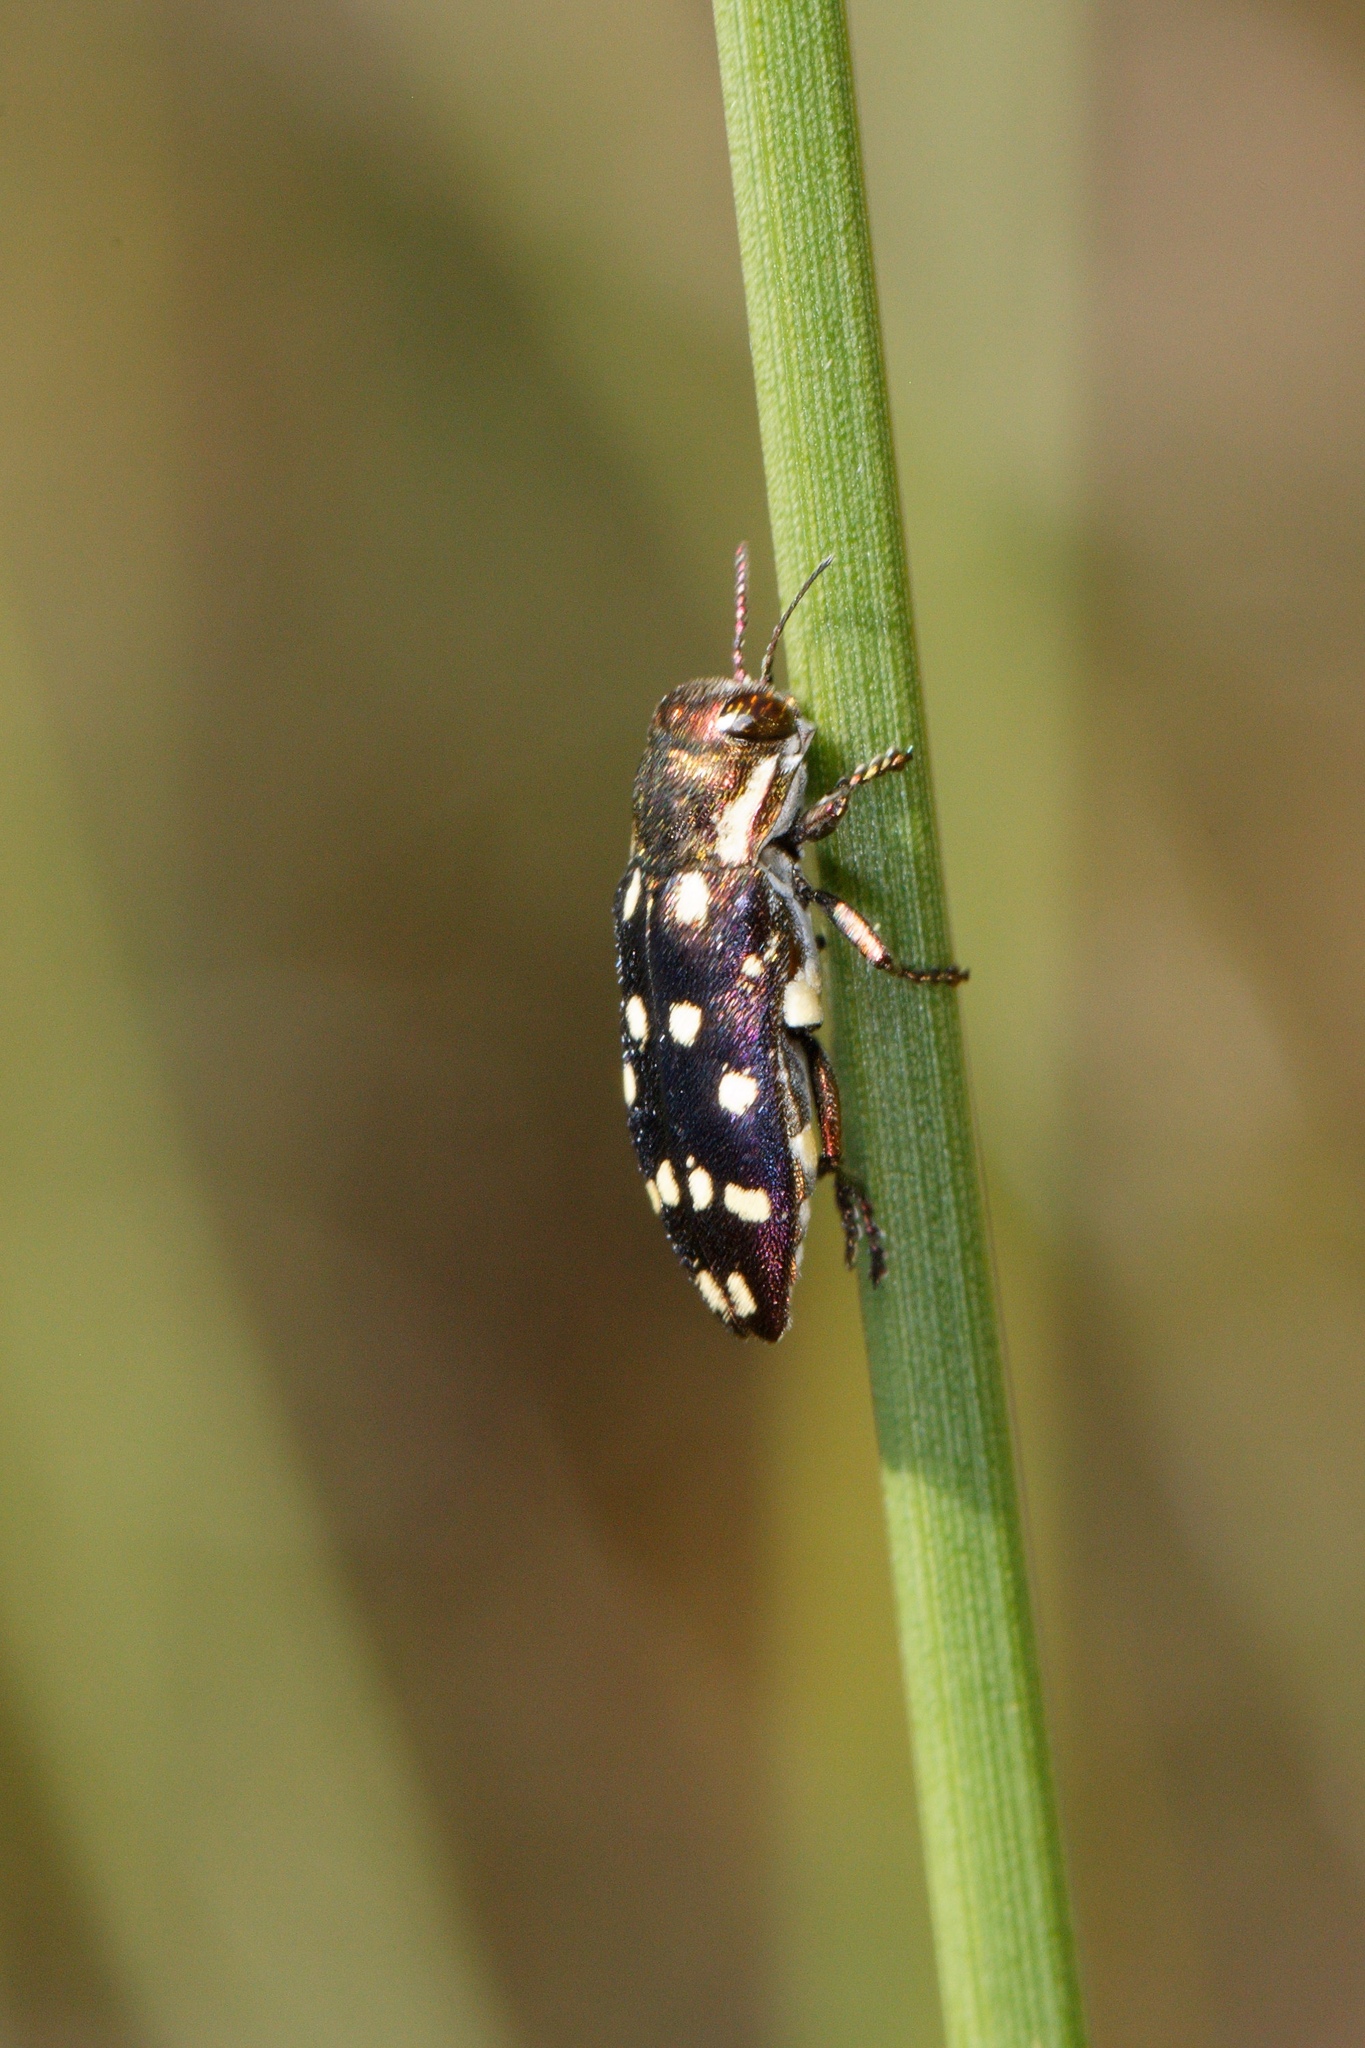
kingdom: Animalia
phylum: Arthropoda
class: Insecta
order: Coleoptera
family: Buprestidae
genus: Diphucrania
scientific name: Diphucrania duodecimmaculata
